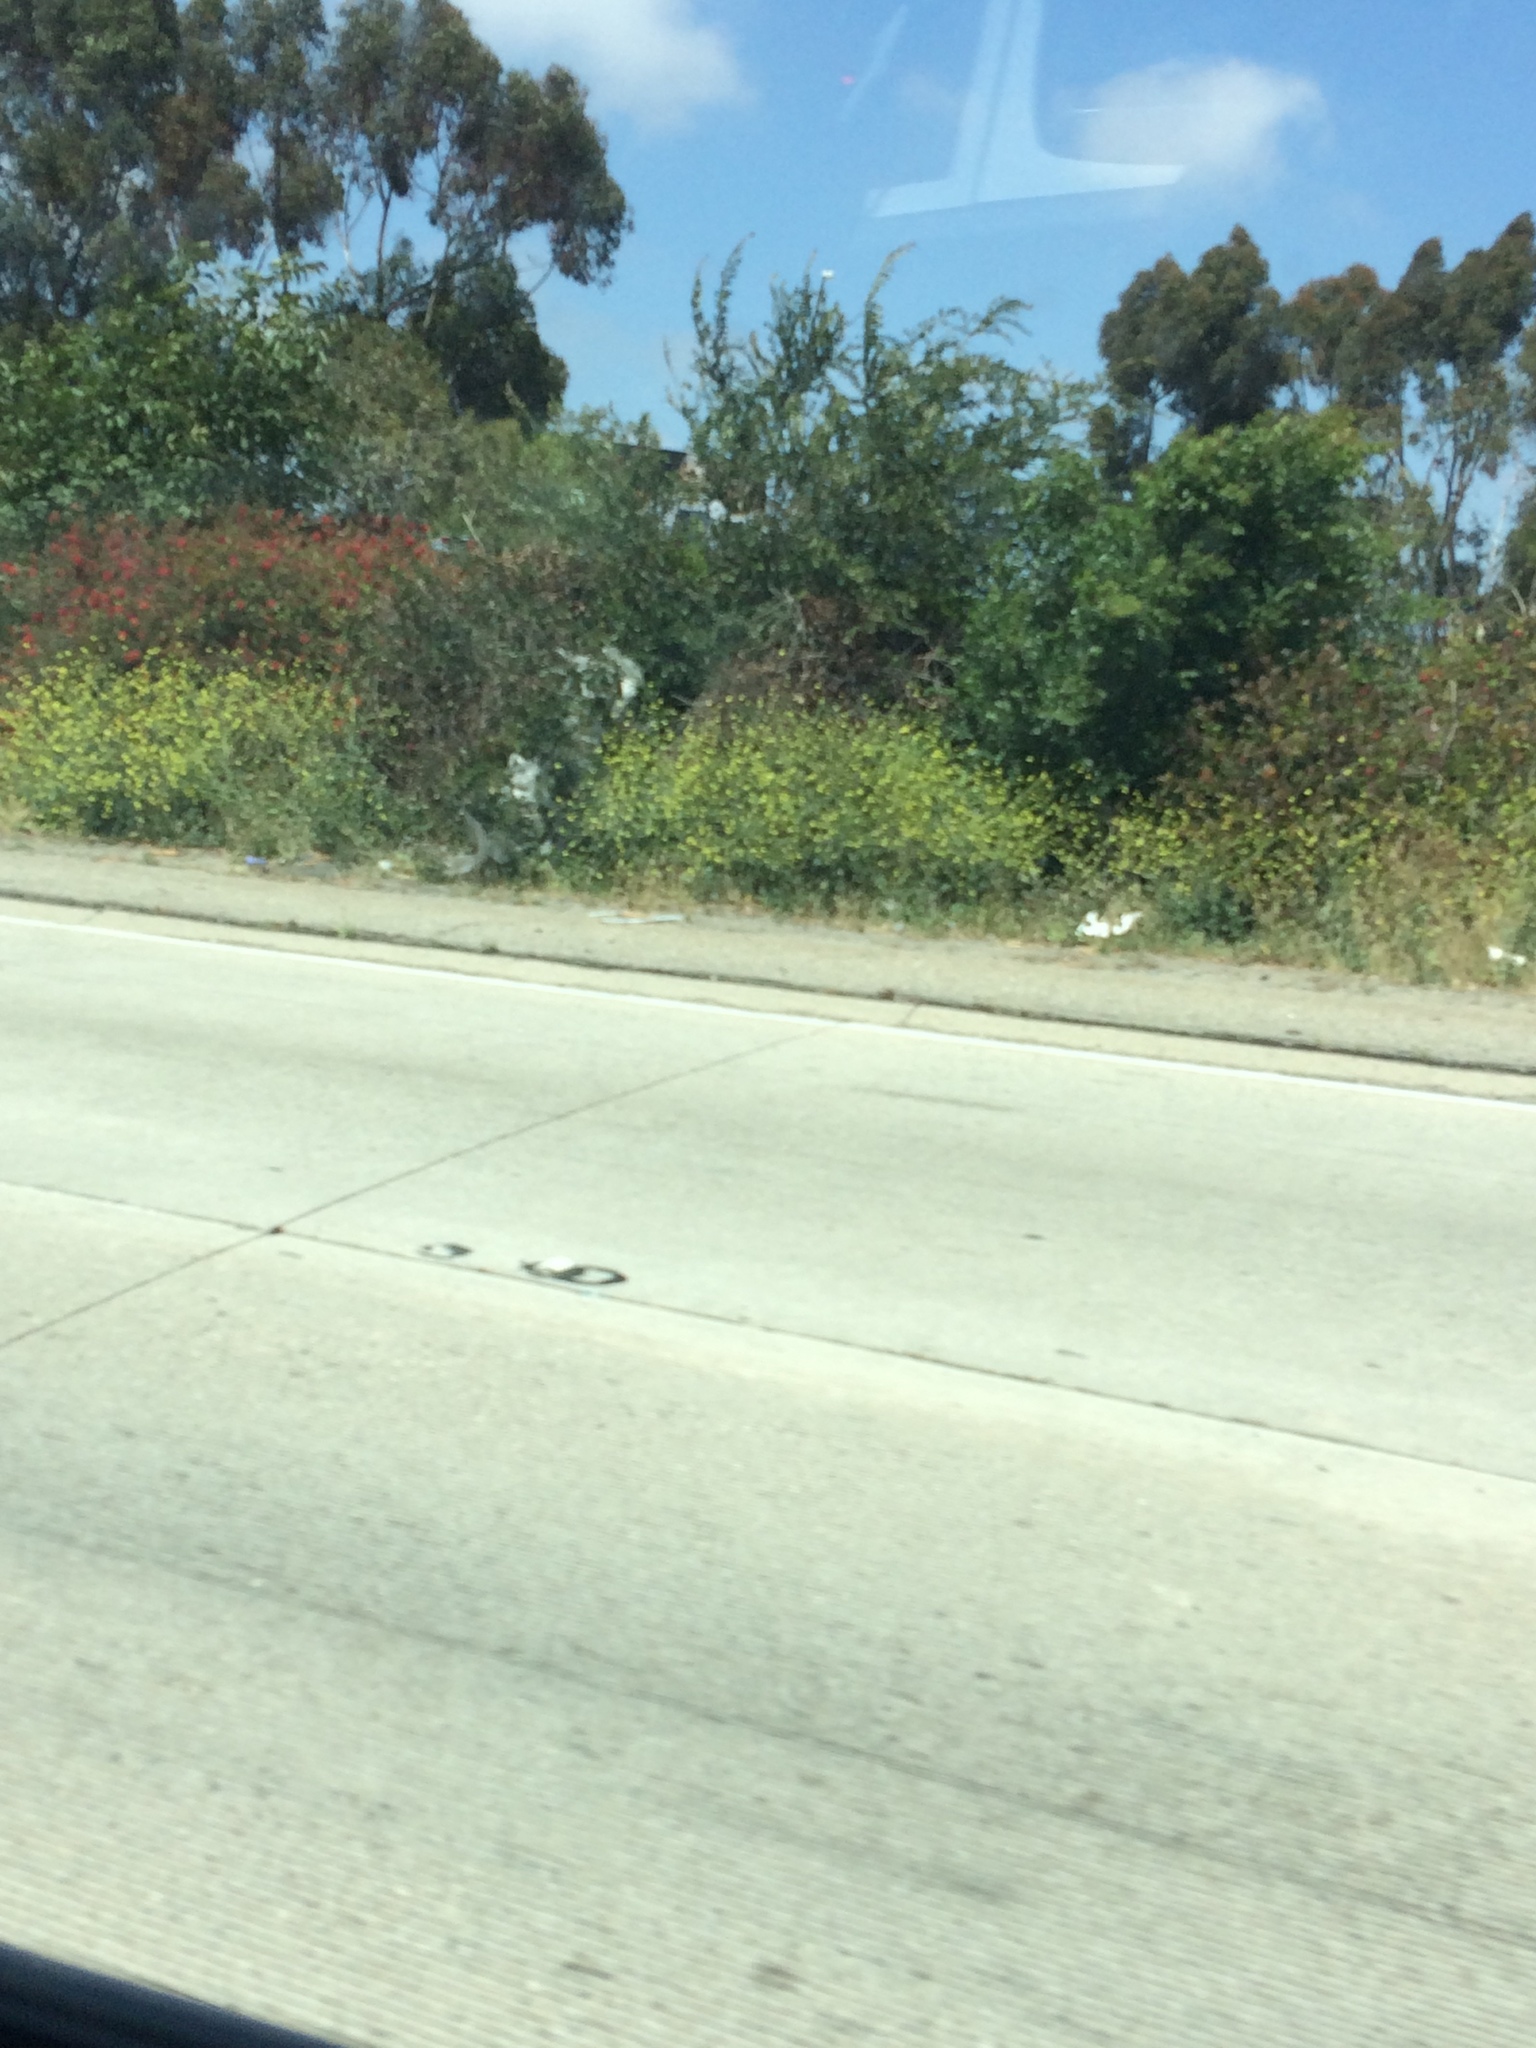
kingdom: Plantae
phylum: Tracheophyta
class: Magnoliopsida
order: Brassicales
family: Brassicaceae
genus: Hirschfeldia
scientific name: Hirschfeldia incana
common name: Hoary mustard
